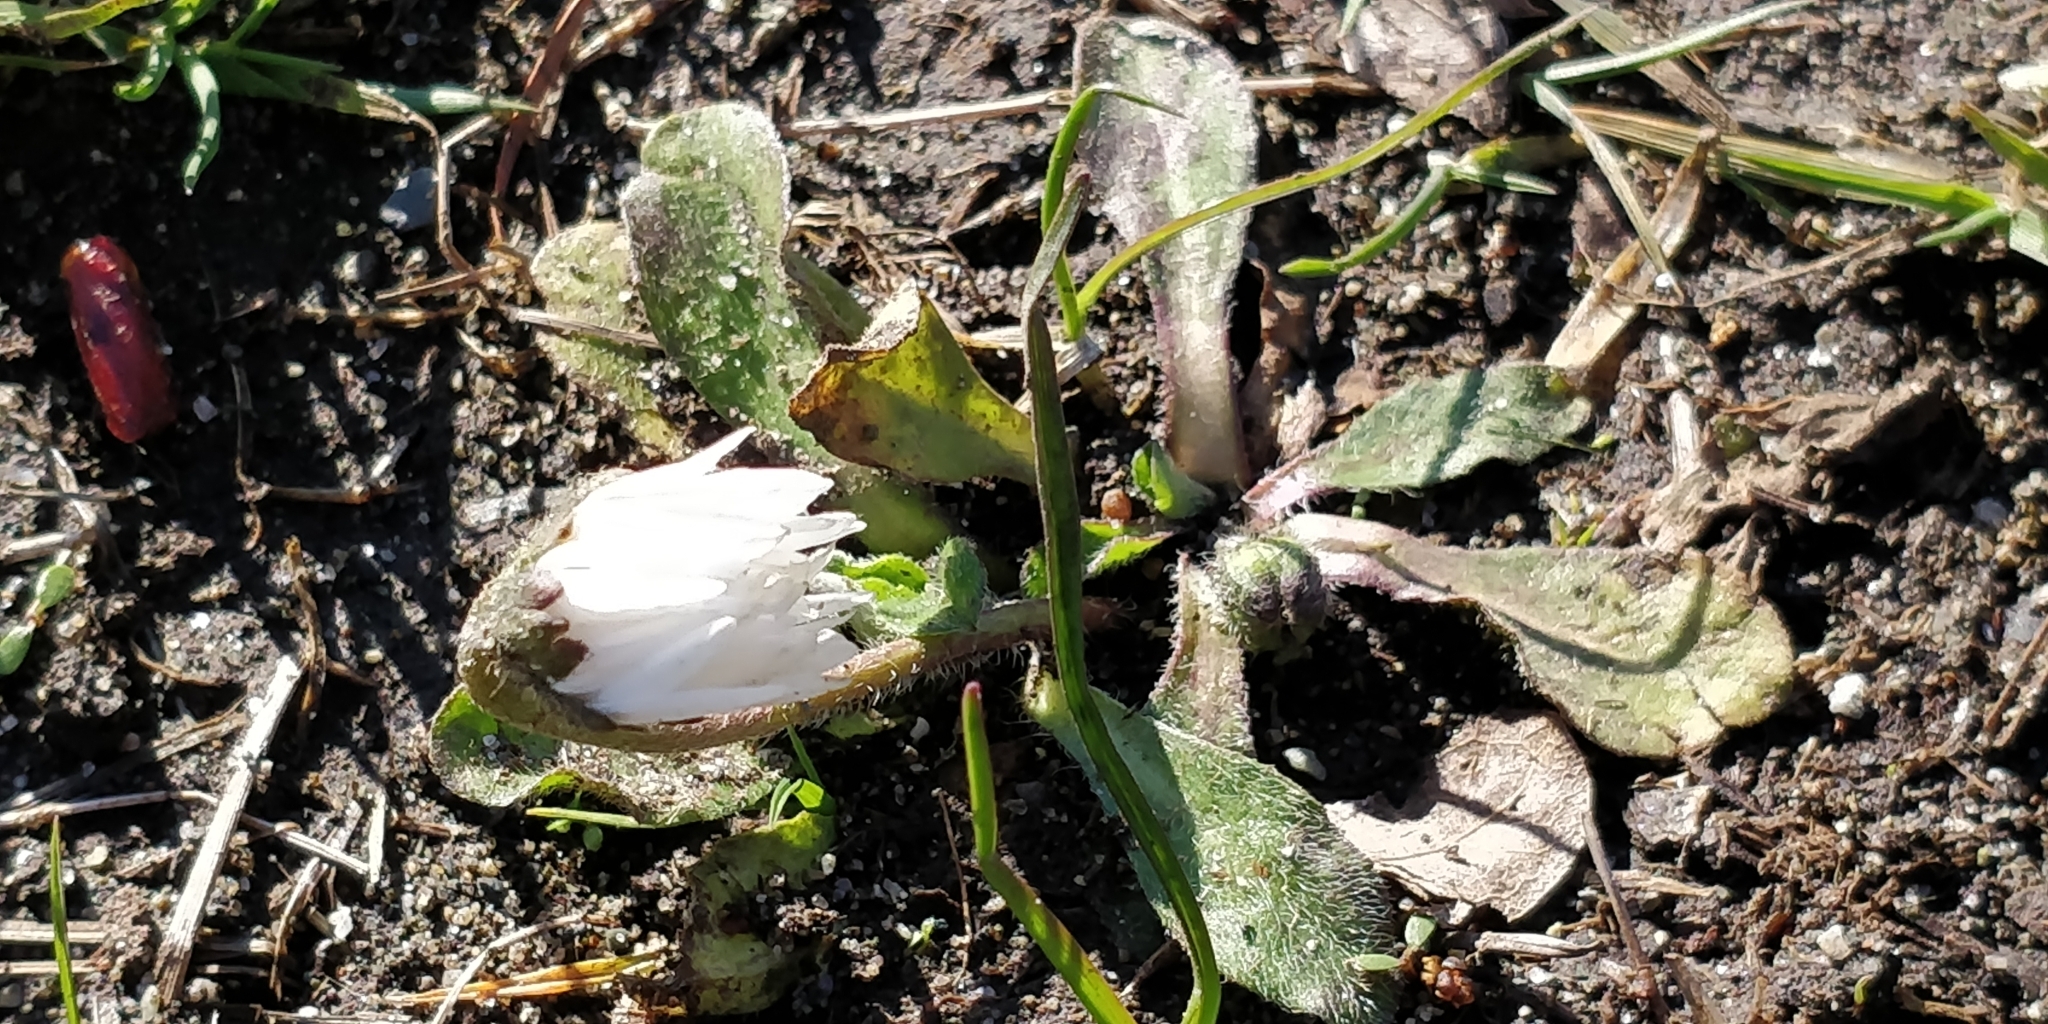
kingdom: Plantae
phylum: Tracheophyta
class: Magnoliopsida
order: Asterales
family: Asteraceae
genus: Bellis
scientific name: Bellis perennis
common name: Lawndaisy
